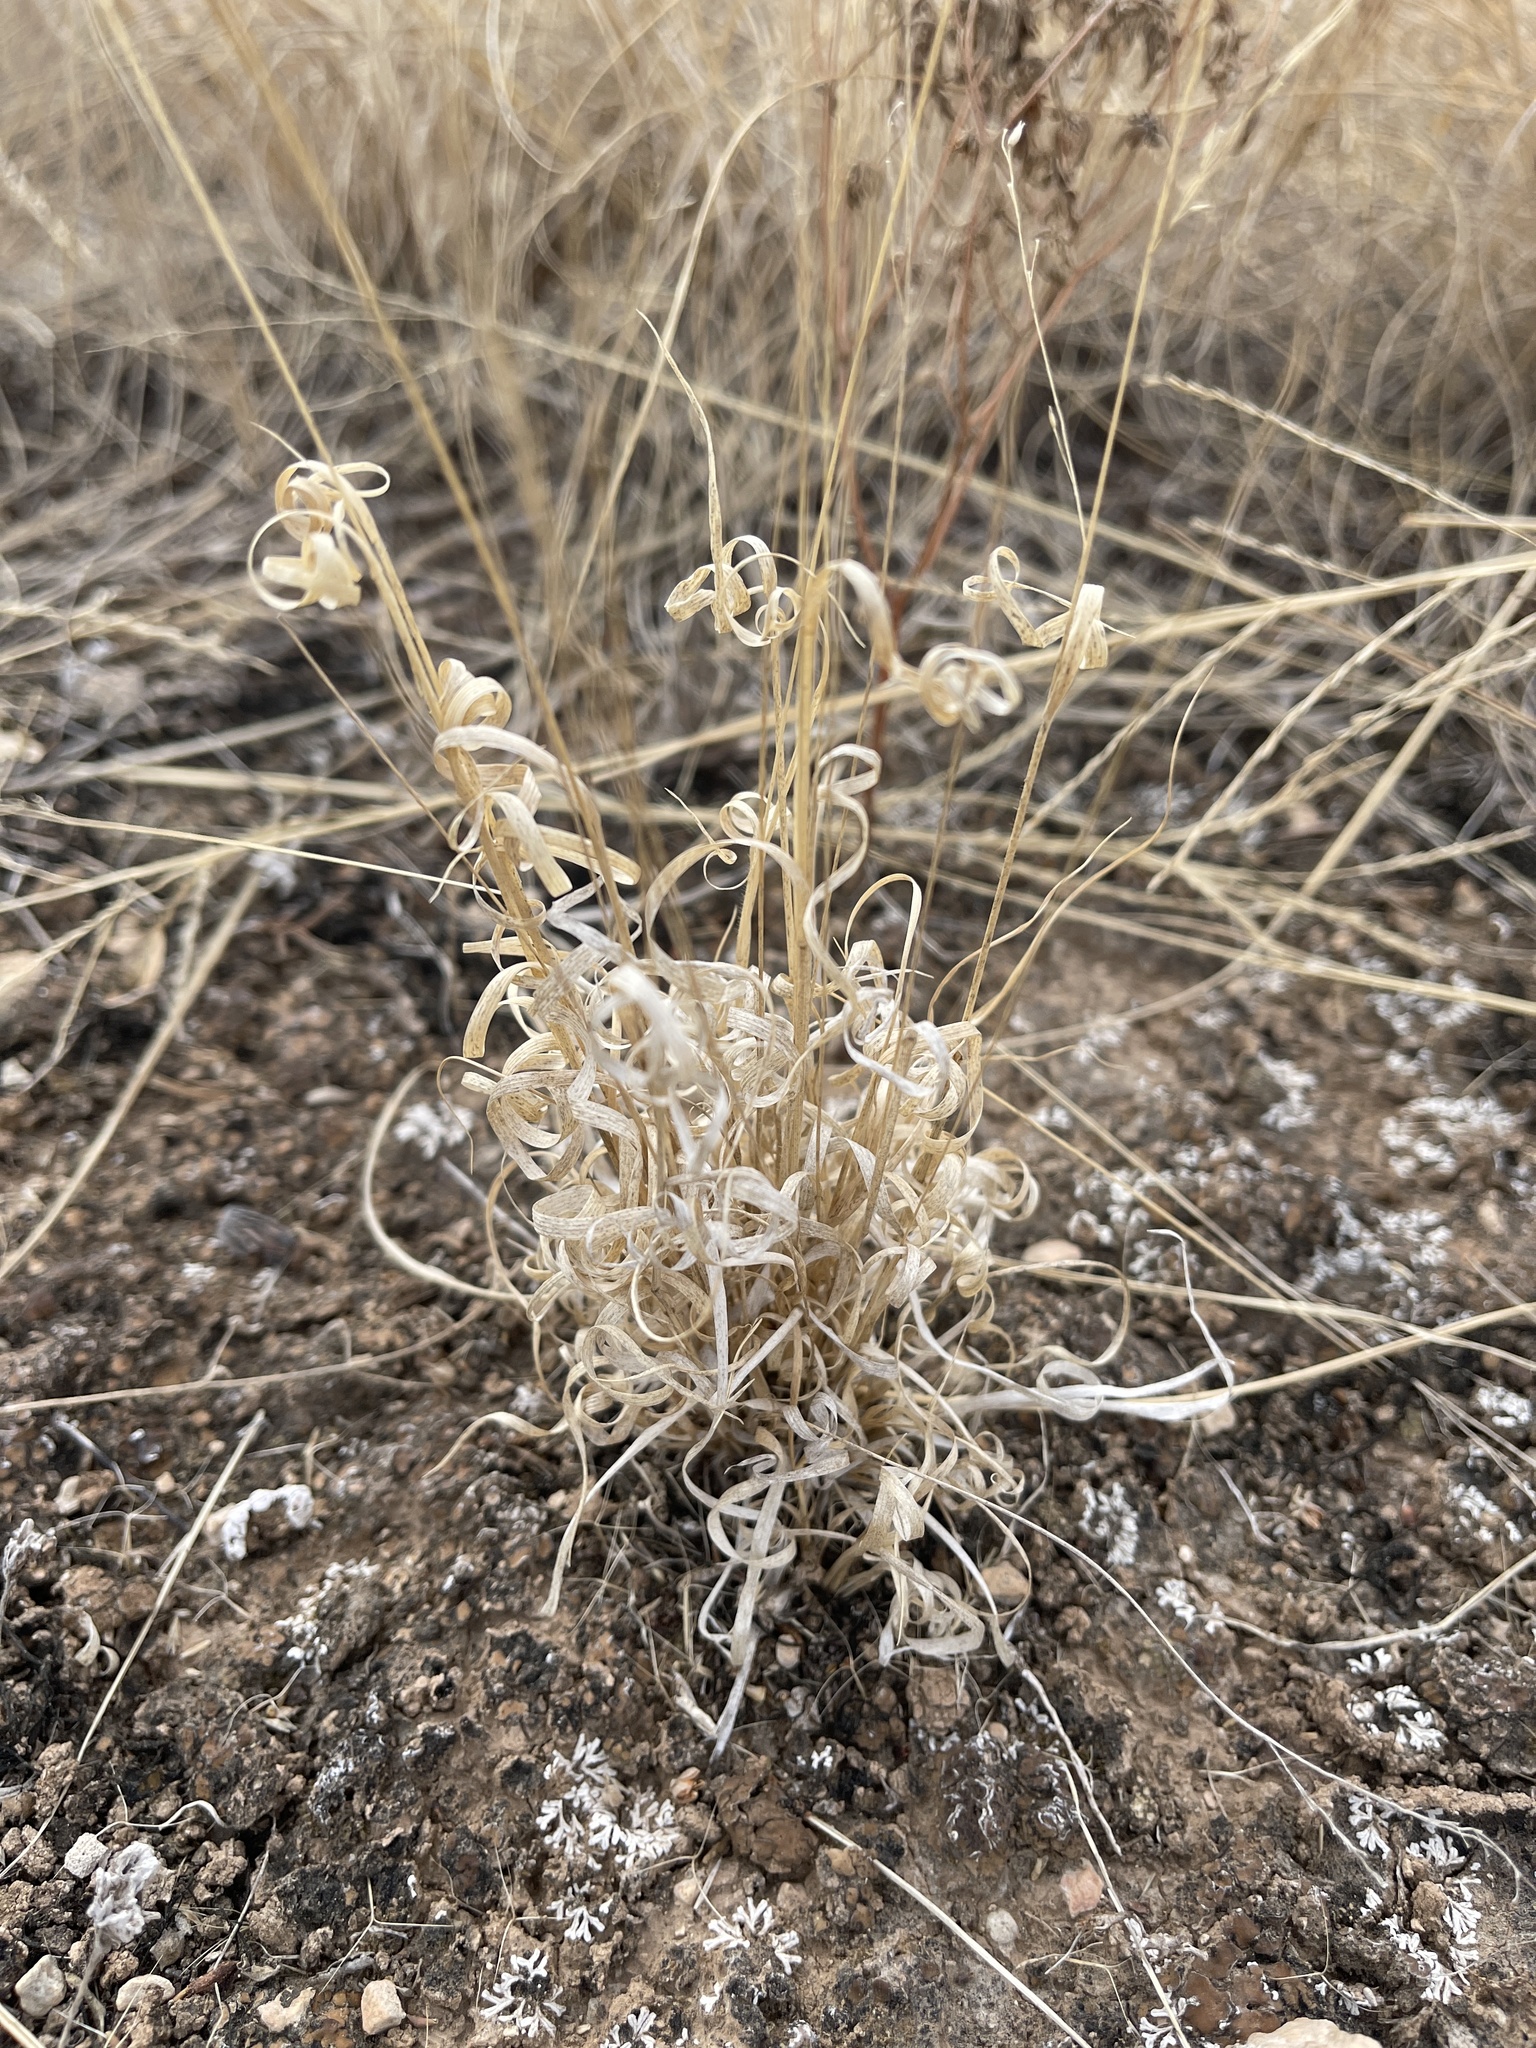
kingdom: Plantae
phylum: Tracheophyta
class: Liliopsida
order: Poales
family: Poaceae
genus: Panicum
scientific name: Panicum hallii
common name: Hall's witchgrass
